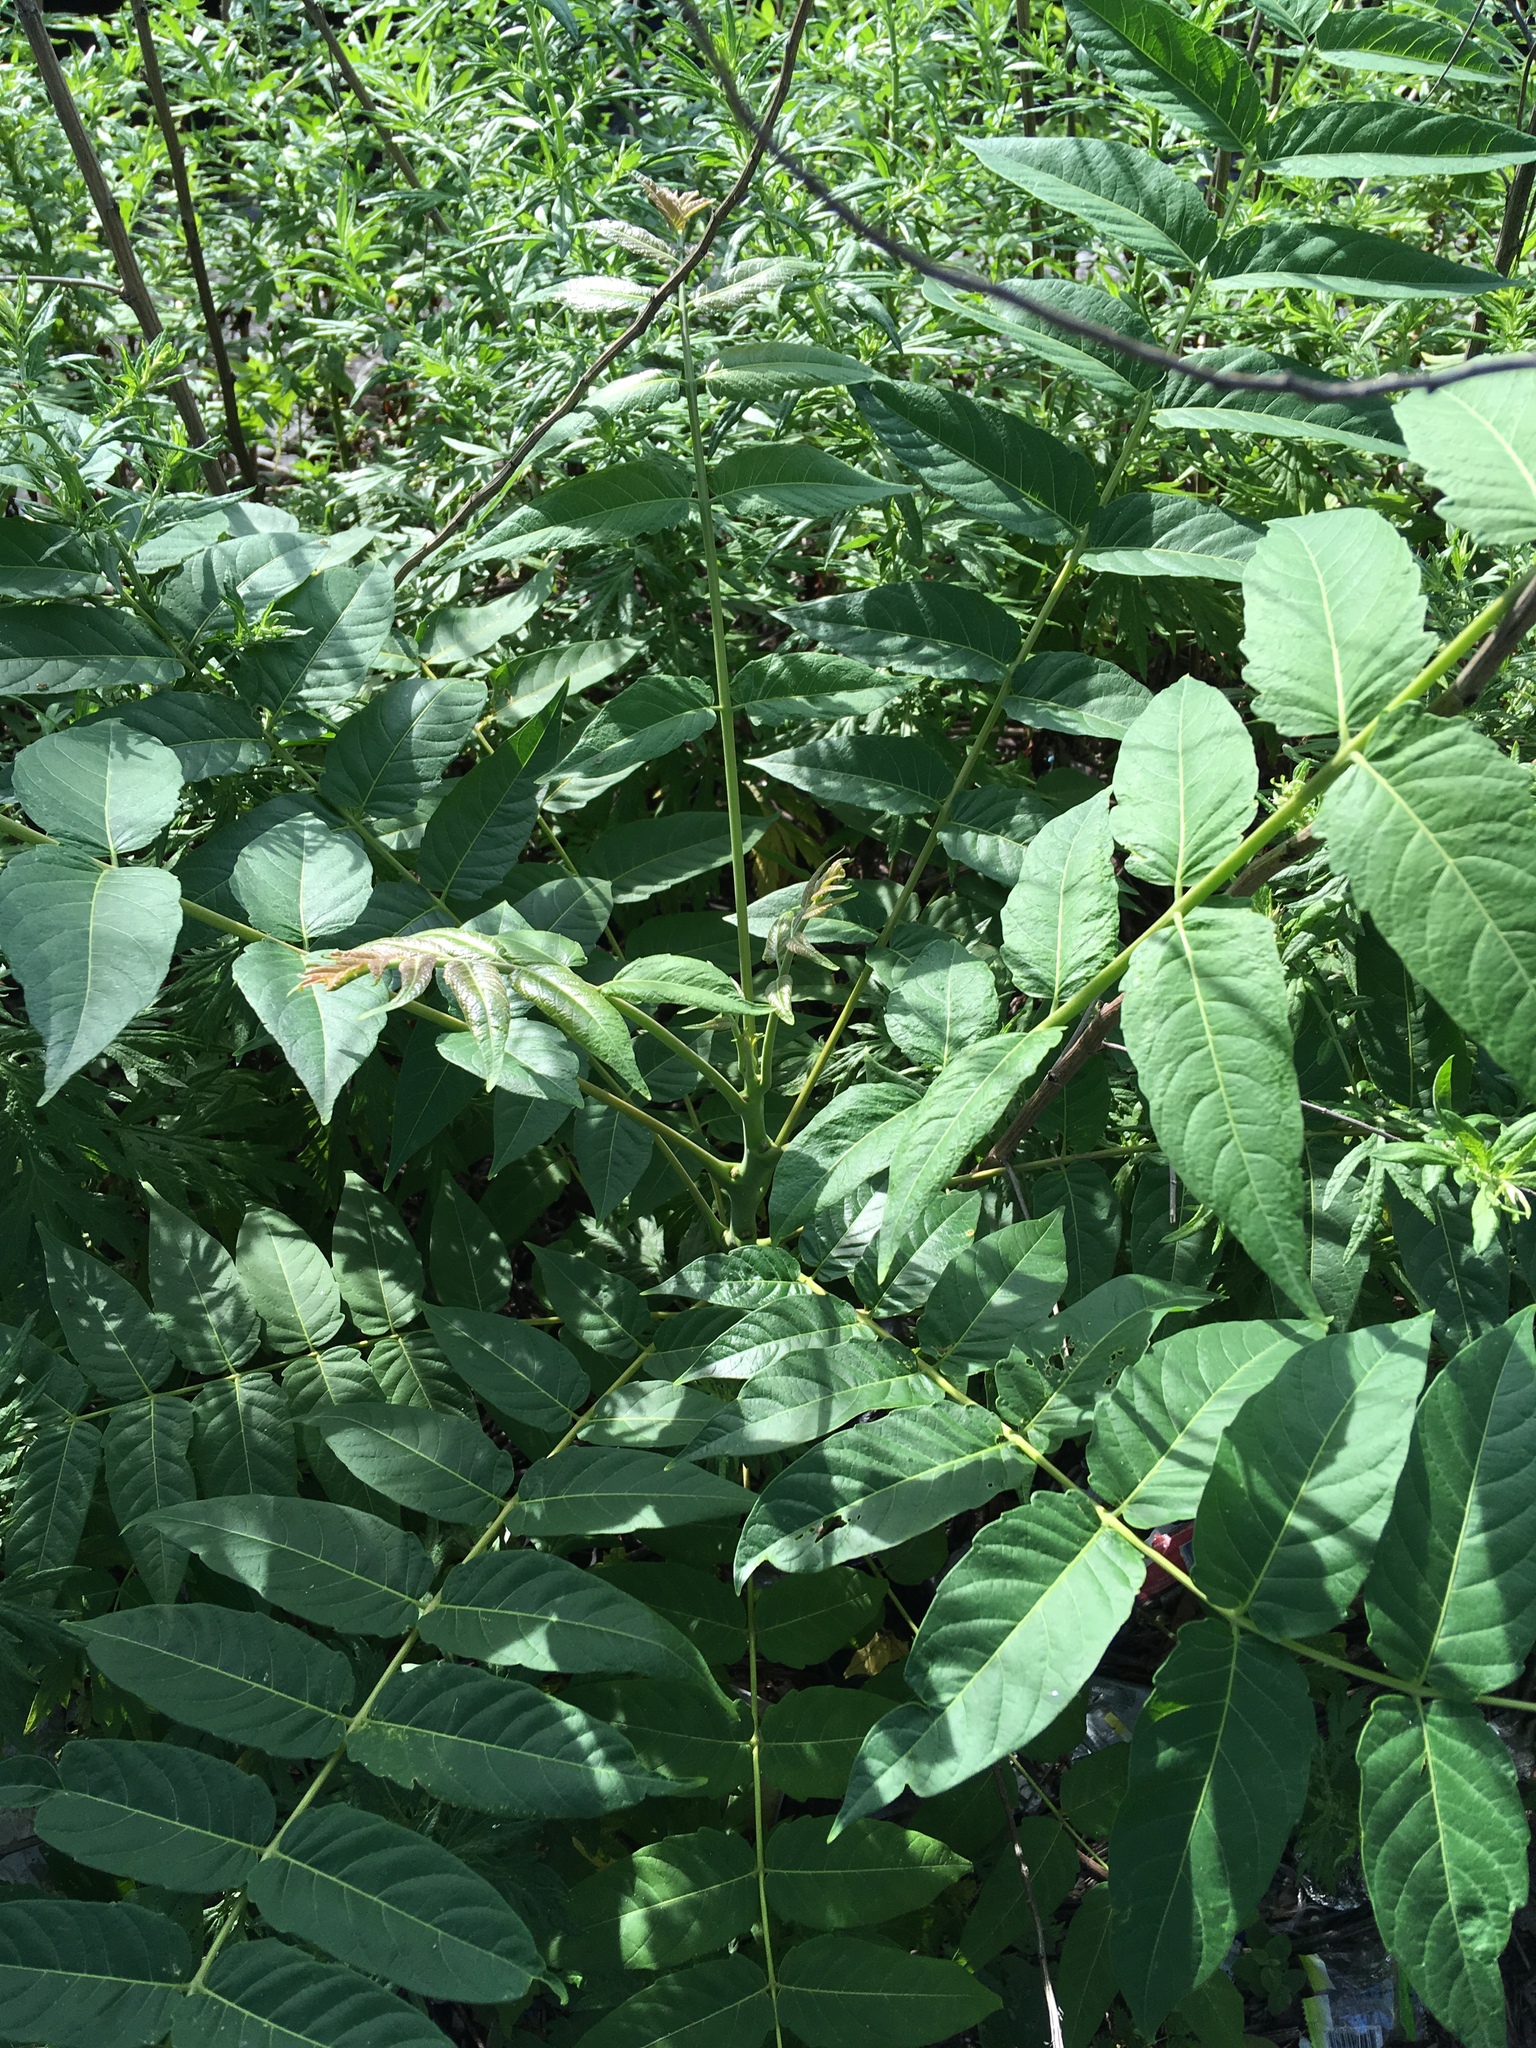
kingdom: Plantae
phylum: Tracheophyta
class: Magnoliopsida
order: Sapindales
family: Simaroubaceae
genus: Ailanthus
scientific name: Ailanthus altissima
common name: Tree-of-heaven
